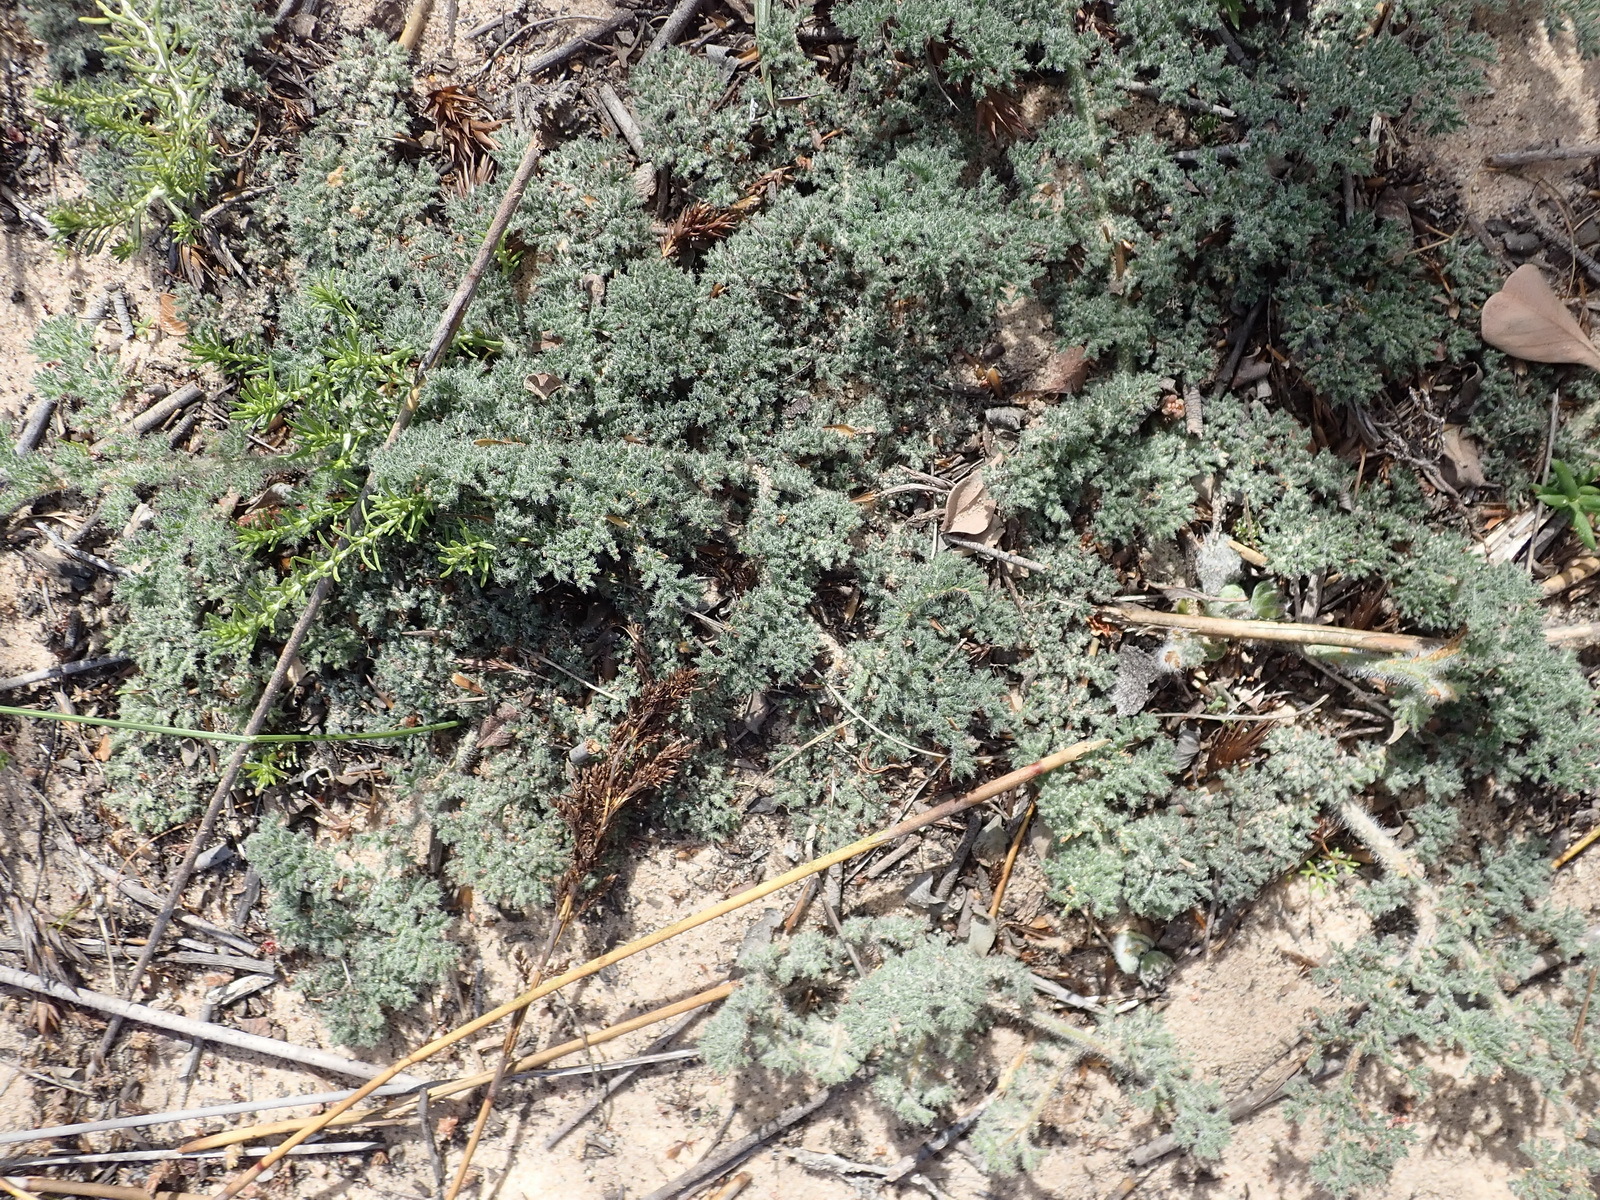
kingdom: Plantae
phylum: Tracheophyta
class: Magnoliopsida
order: Geraniales
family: Geraniaceae
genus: Pelargonium
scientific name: Pelargonium triste
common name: Night-scent pelargonium
